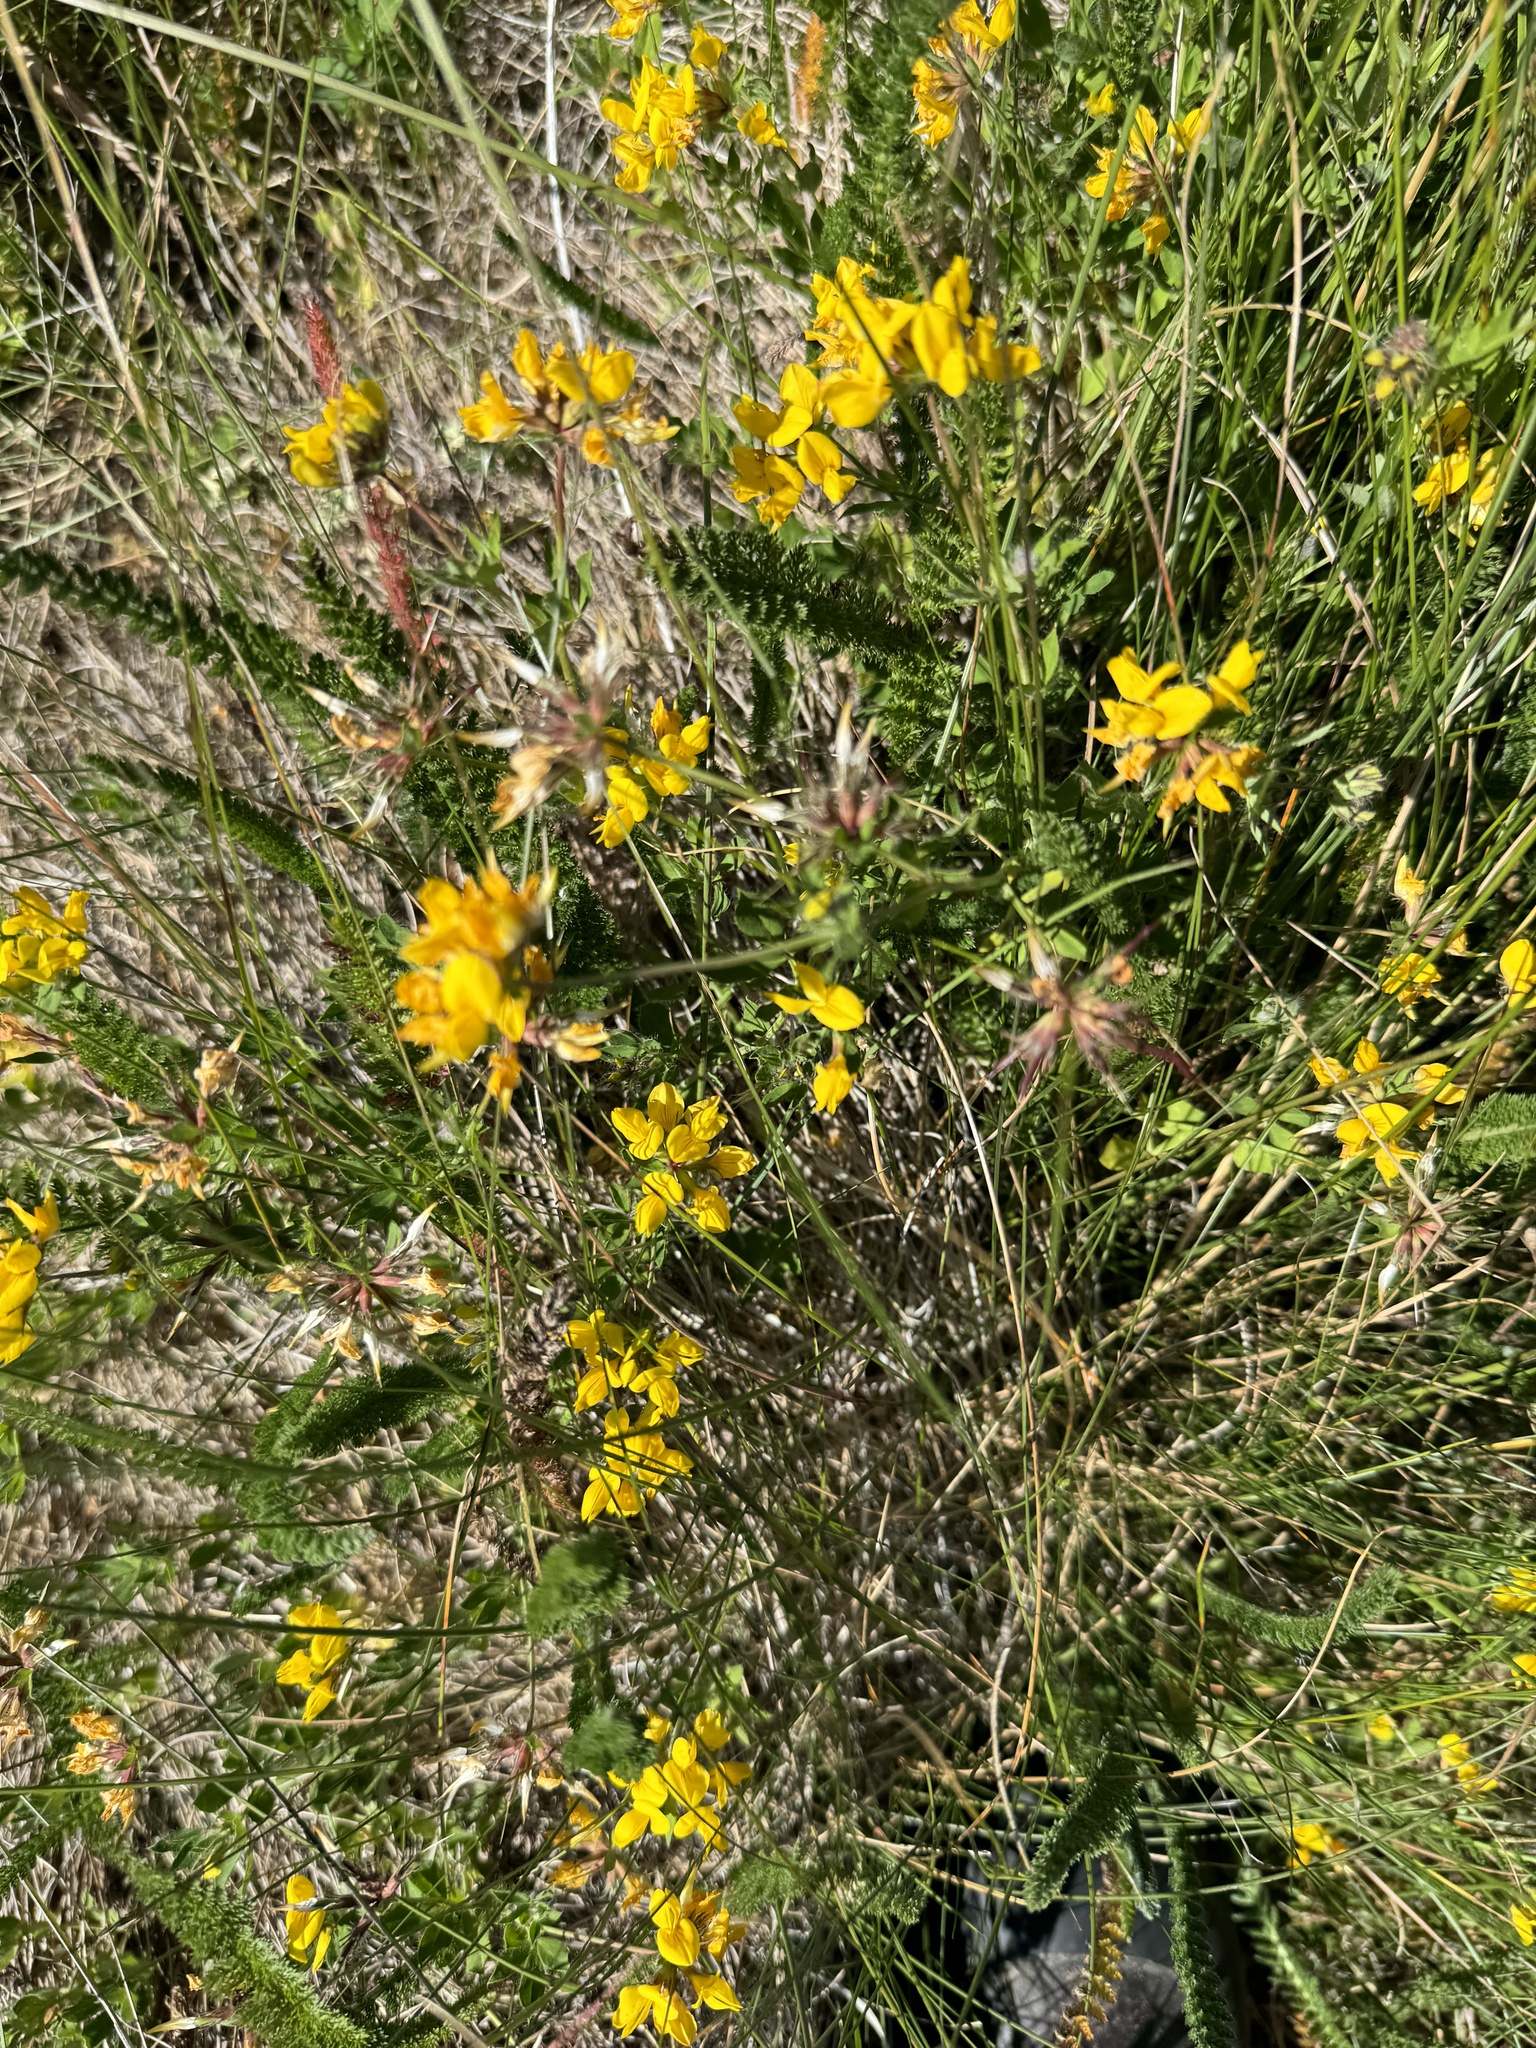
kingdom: Plantae
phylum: Tracheophyta
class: Magnoliopsida
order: Fabales
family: Fabaceae
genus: Lotus
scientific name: Lotus pedunculatus
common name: Greater birdsfoot-trefoil
